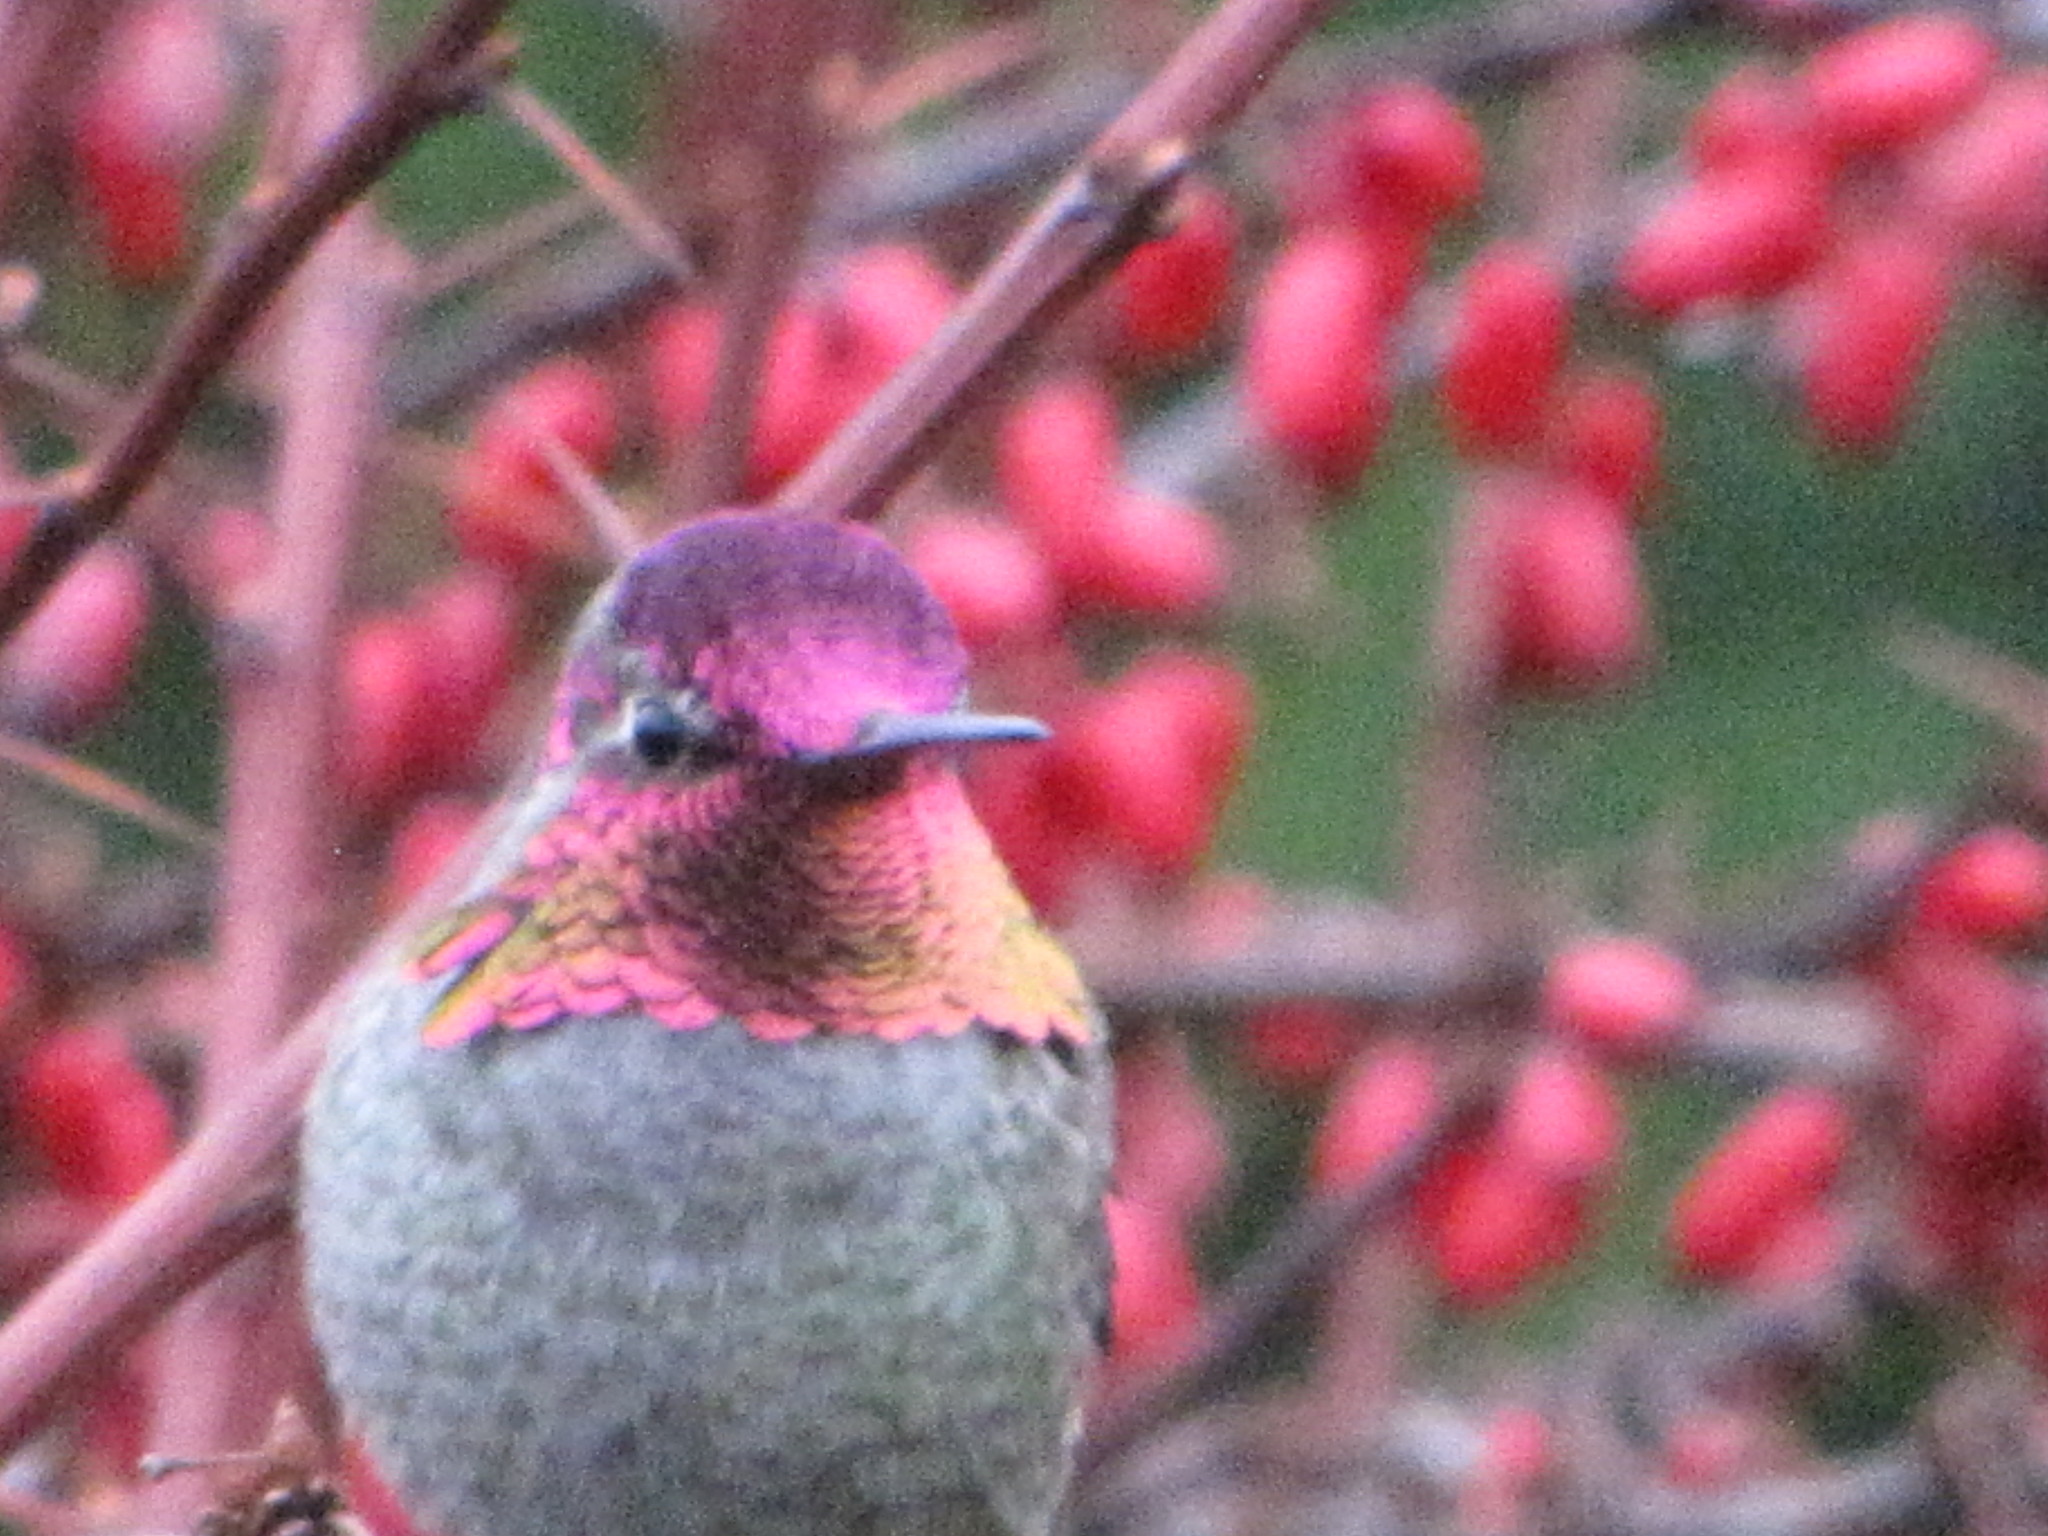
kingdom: Animalia
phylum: Chordata
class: Aves
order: Apodiformes
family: Trochilidae
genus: Calypte
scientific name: Calypte anna
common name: Anna's hummingbird
